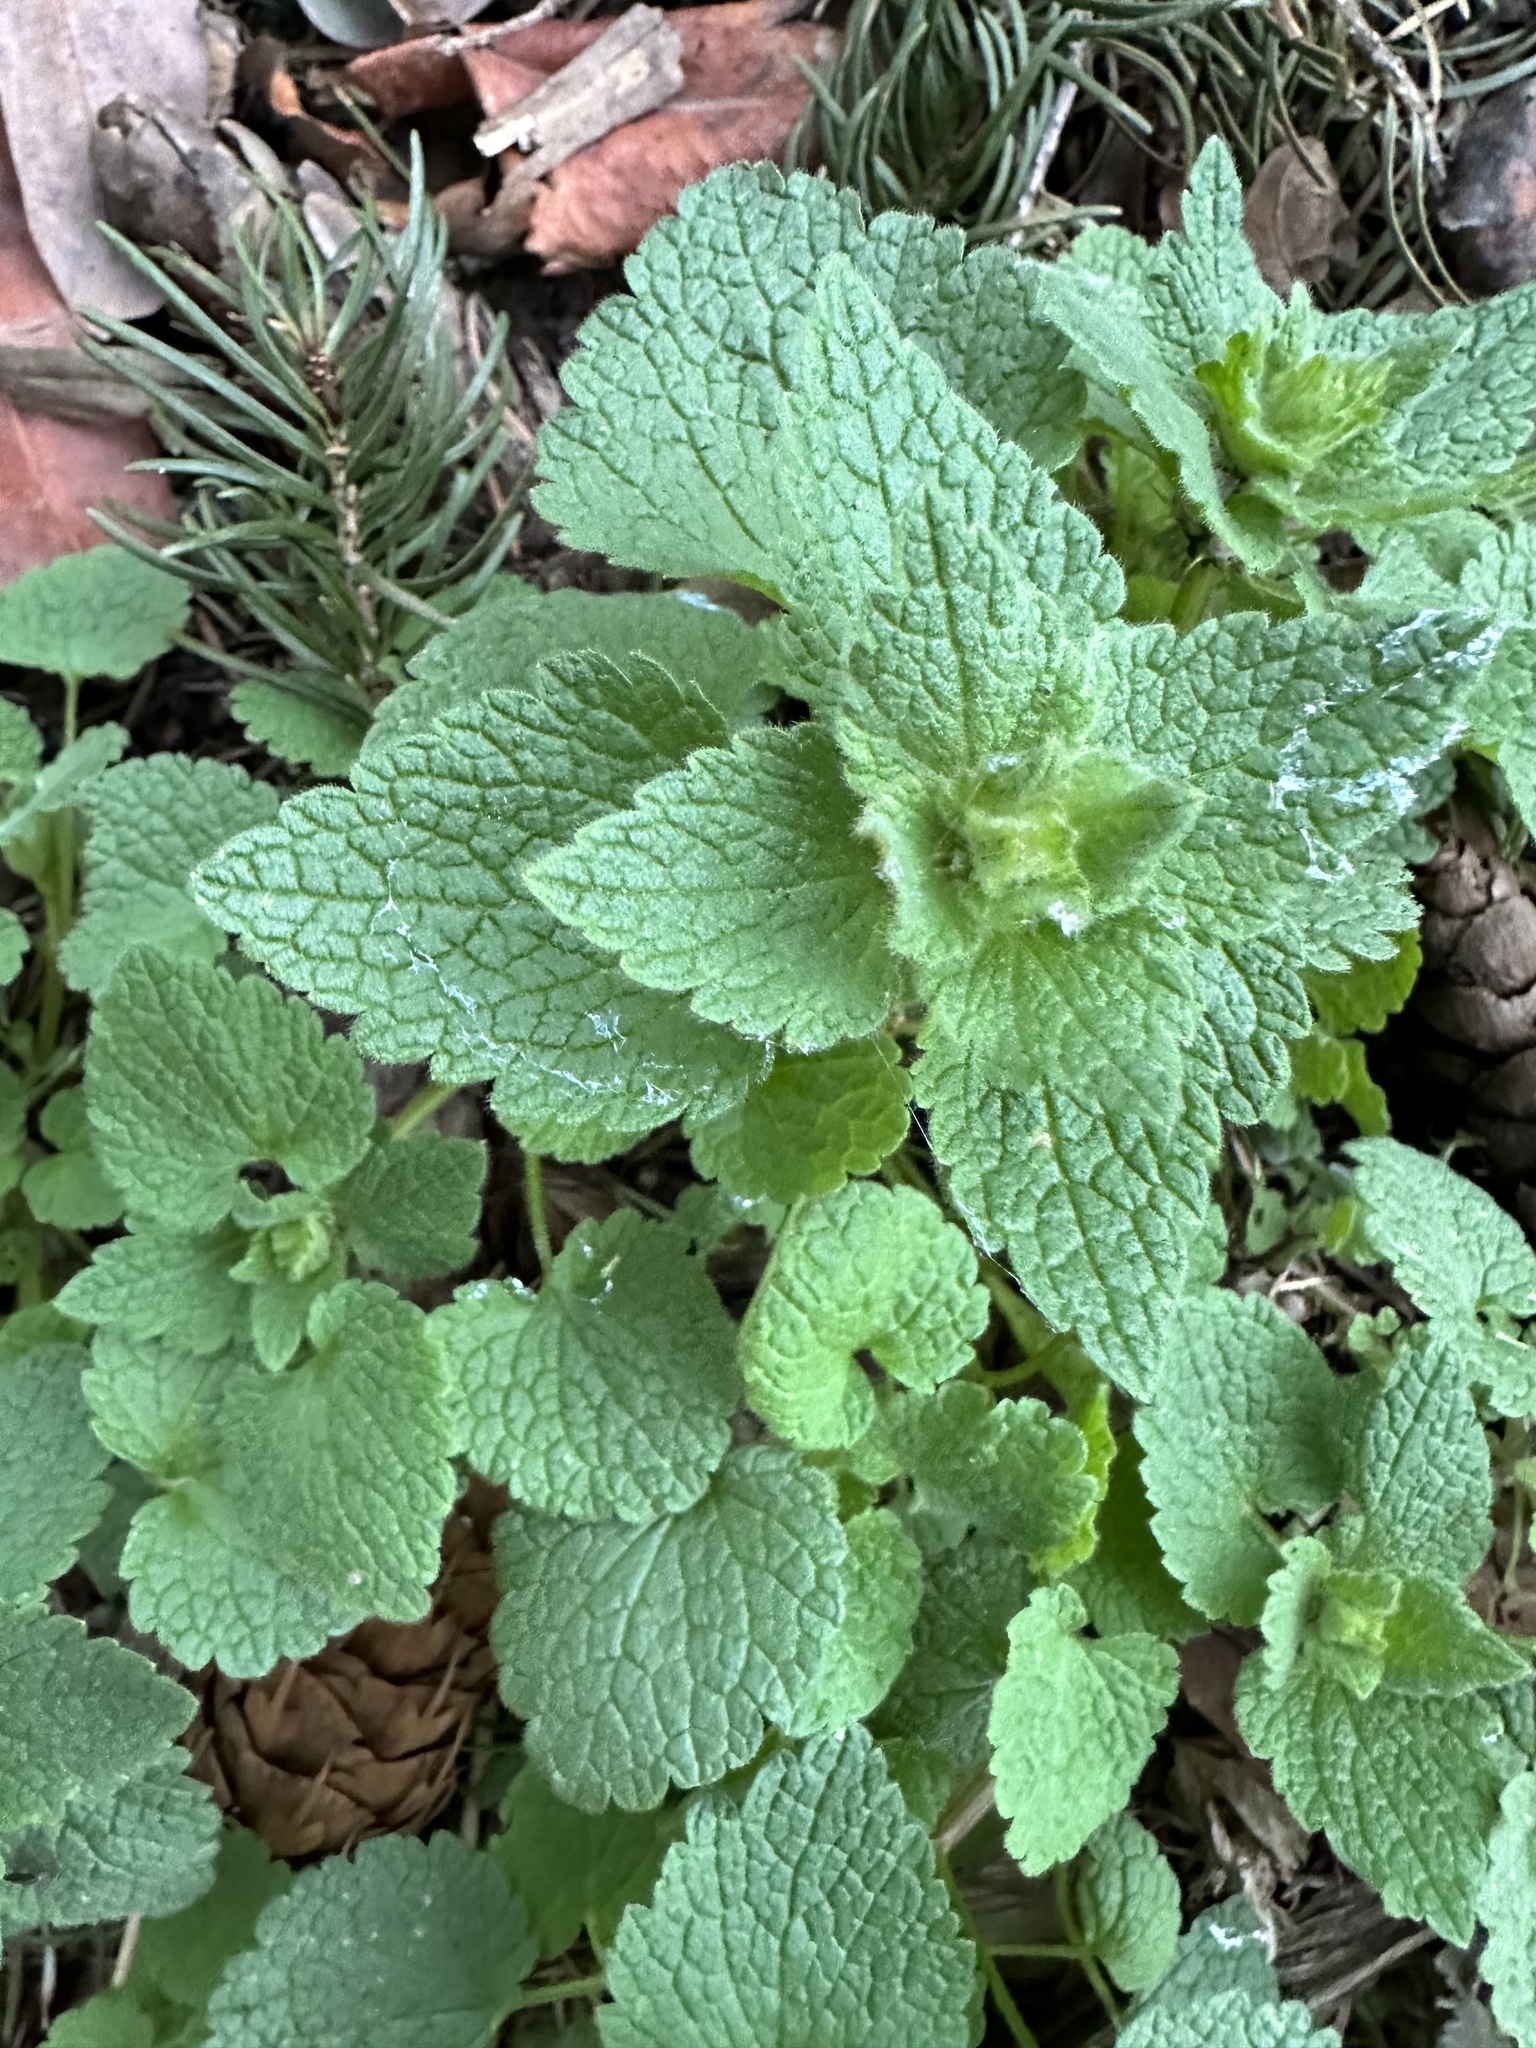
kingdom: Plantae
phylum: Tracheophyta
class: Magnoliopsida
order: Lamiales
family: Lamiaceae
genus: Lamium
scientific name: Lamium purpureum
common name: Red dead-nettle
